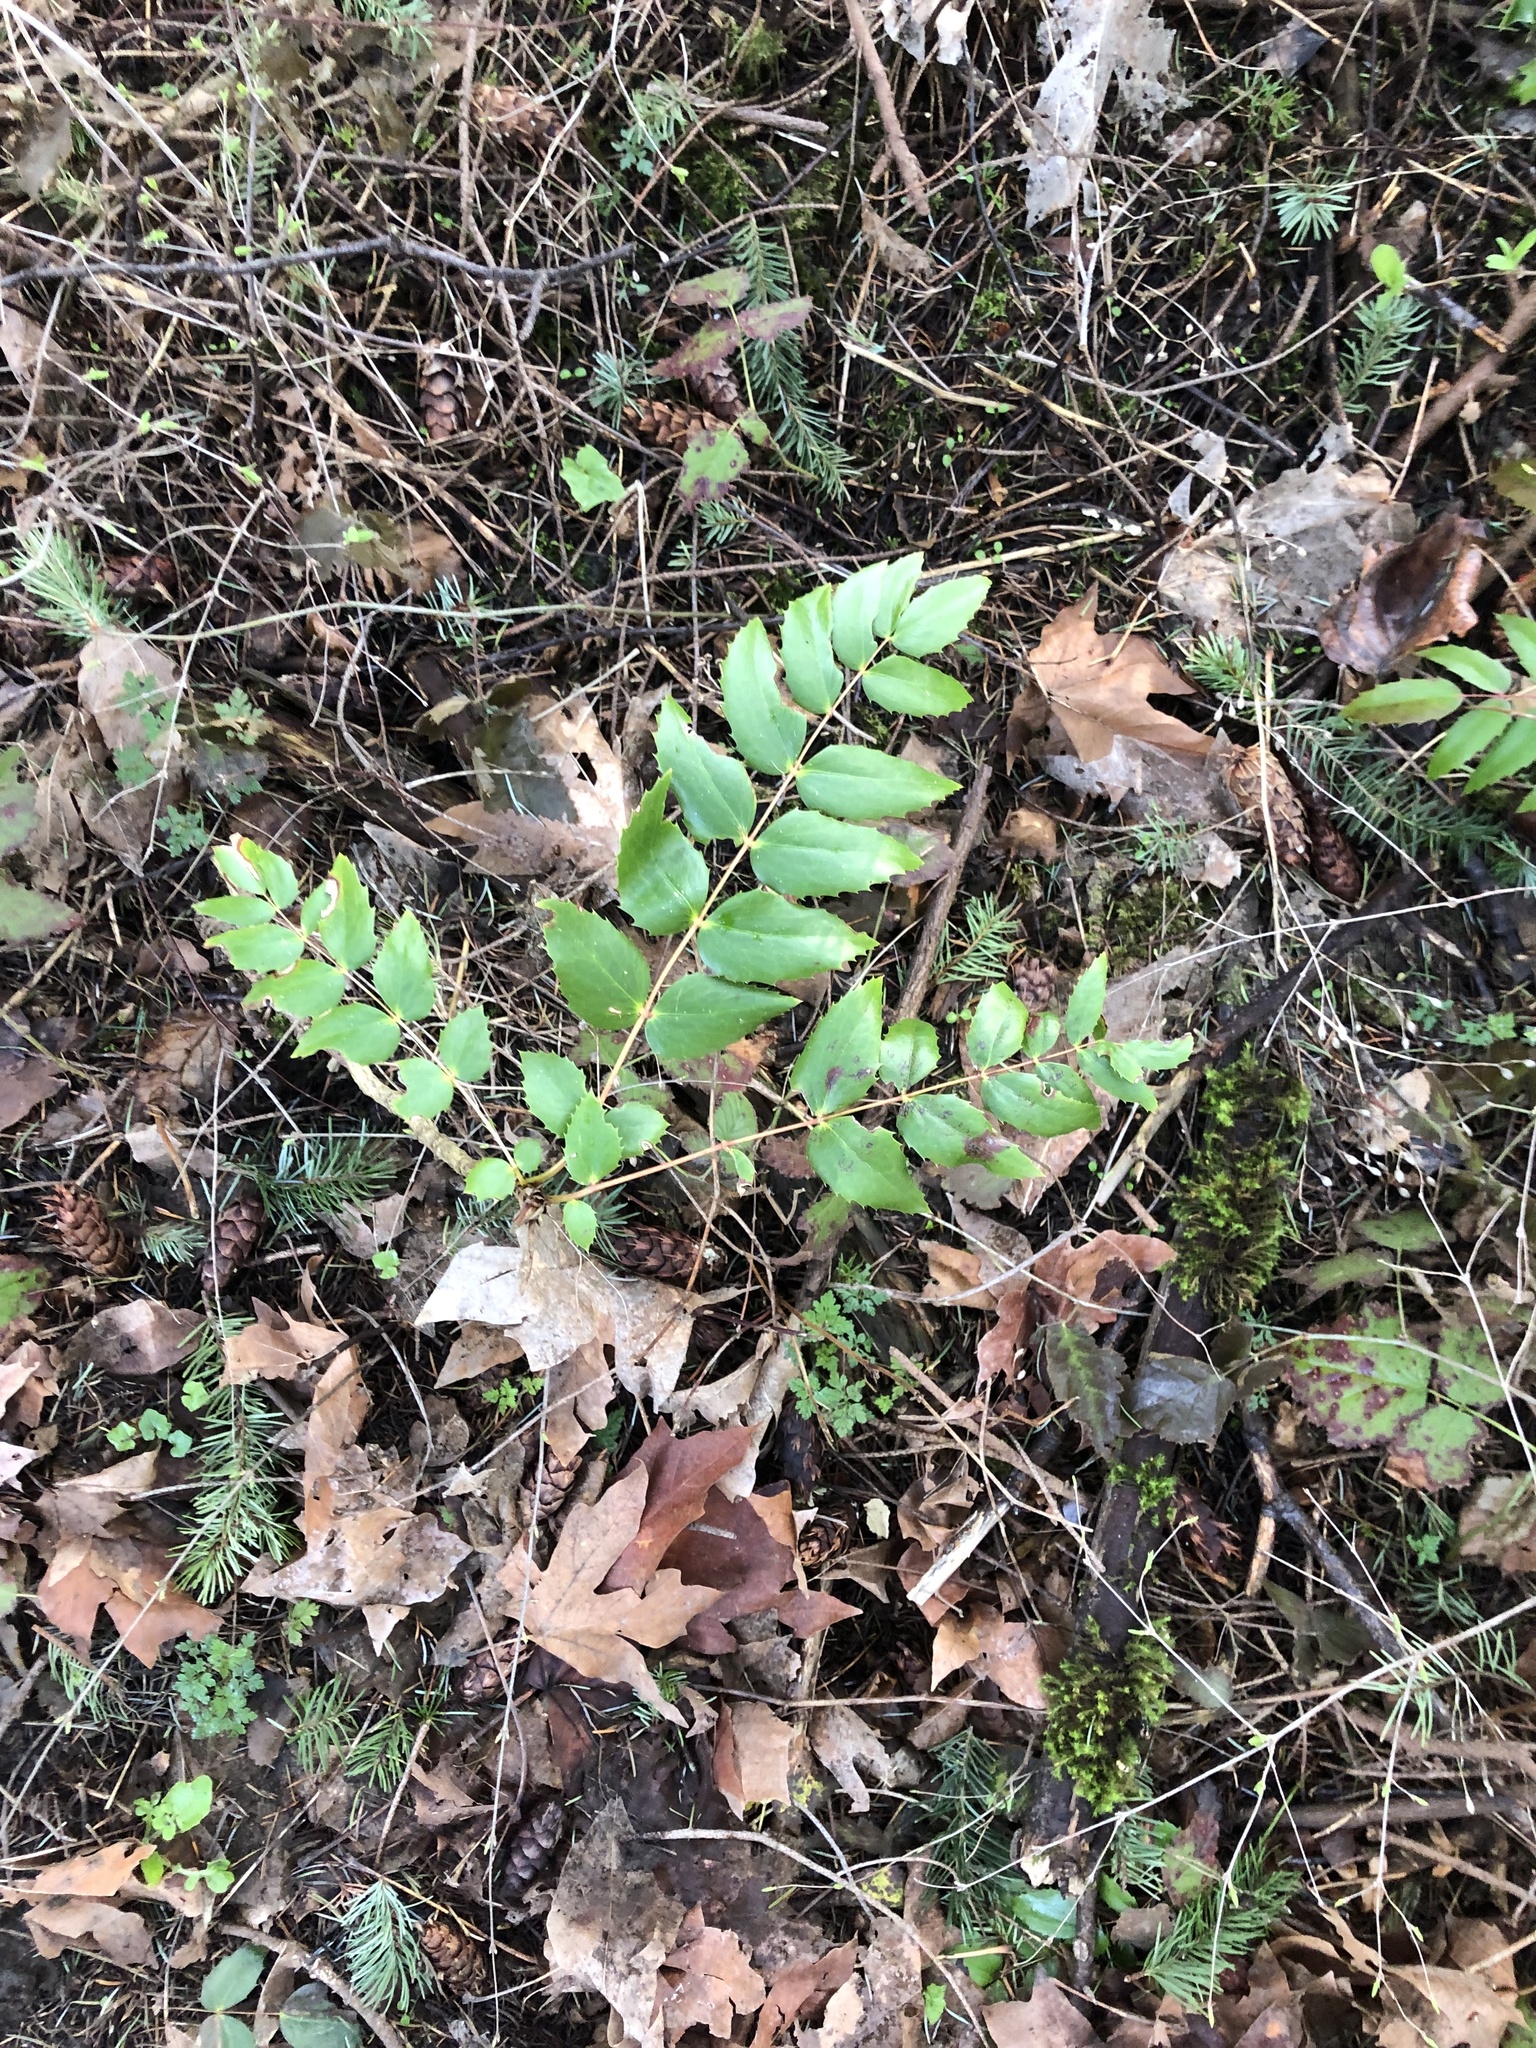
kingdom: Plantae
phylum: Tracheophyta
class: Magnoliopsida
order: Ranunculales
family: Berberidaceae
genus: Mahonia
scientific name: Mahonia nervosa
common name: Cascade oregon-grape
